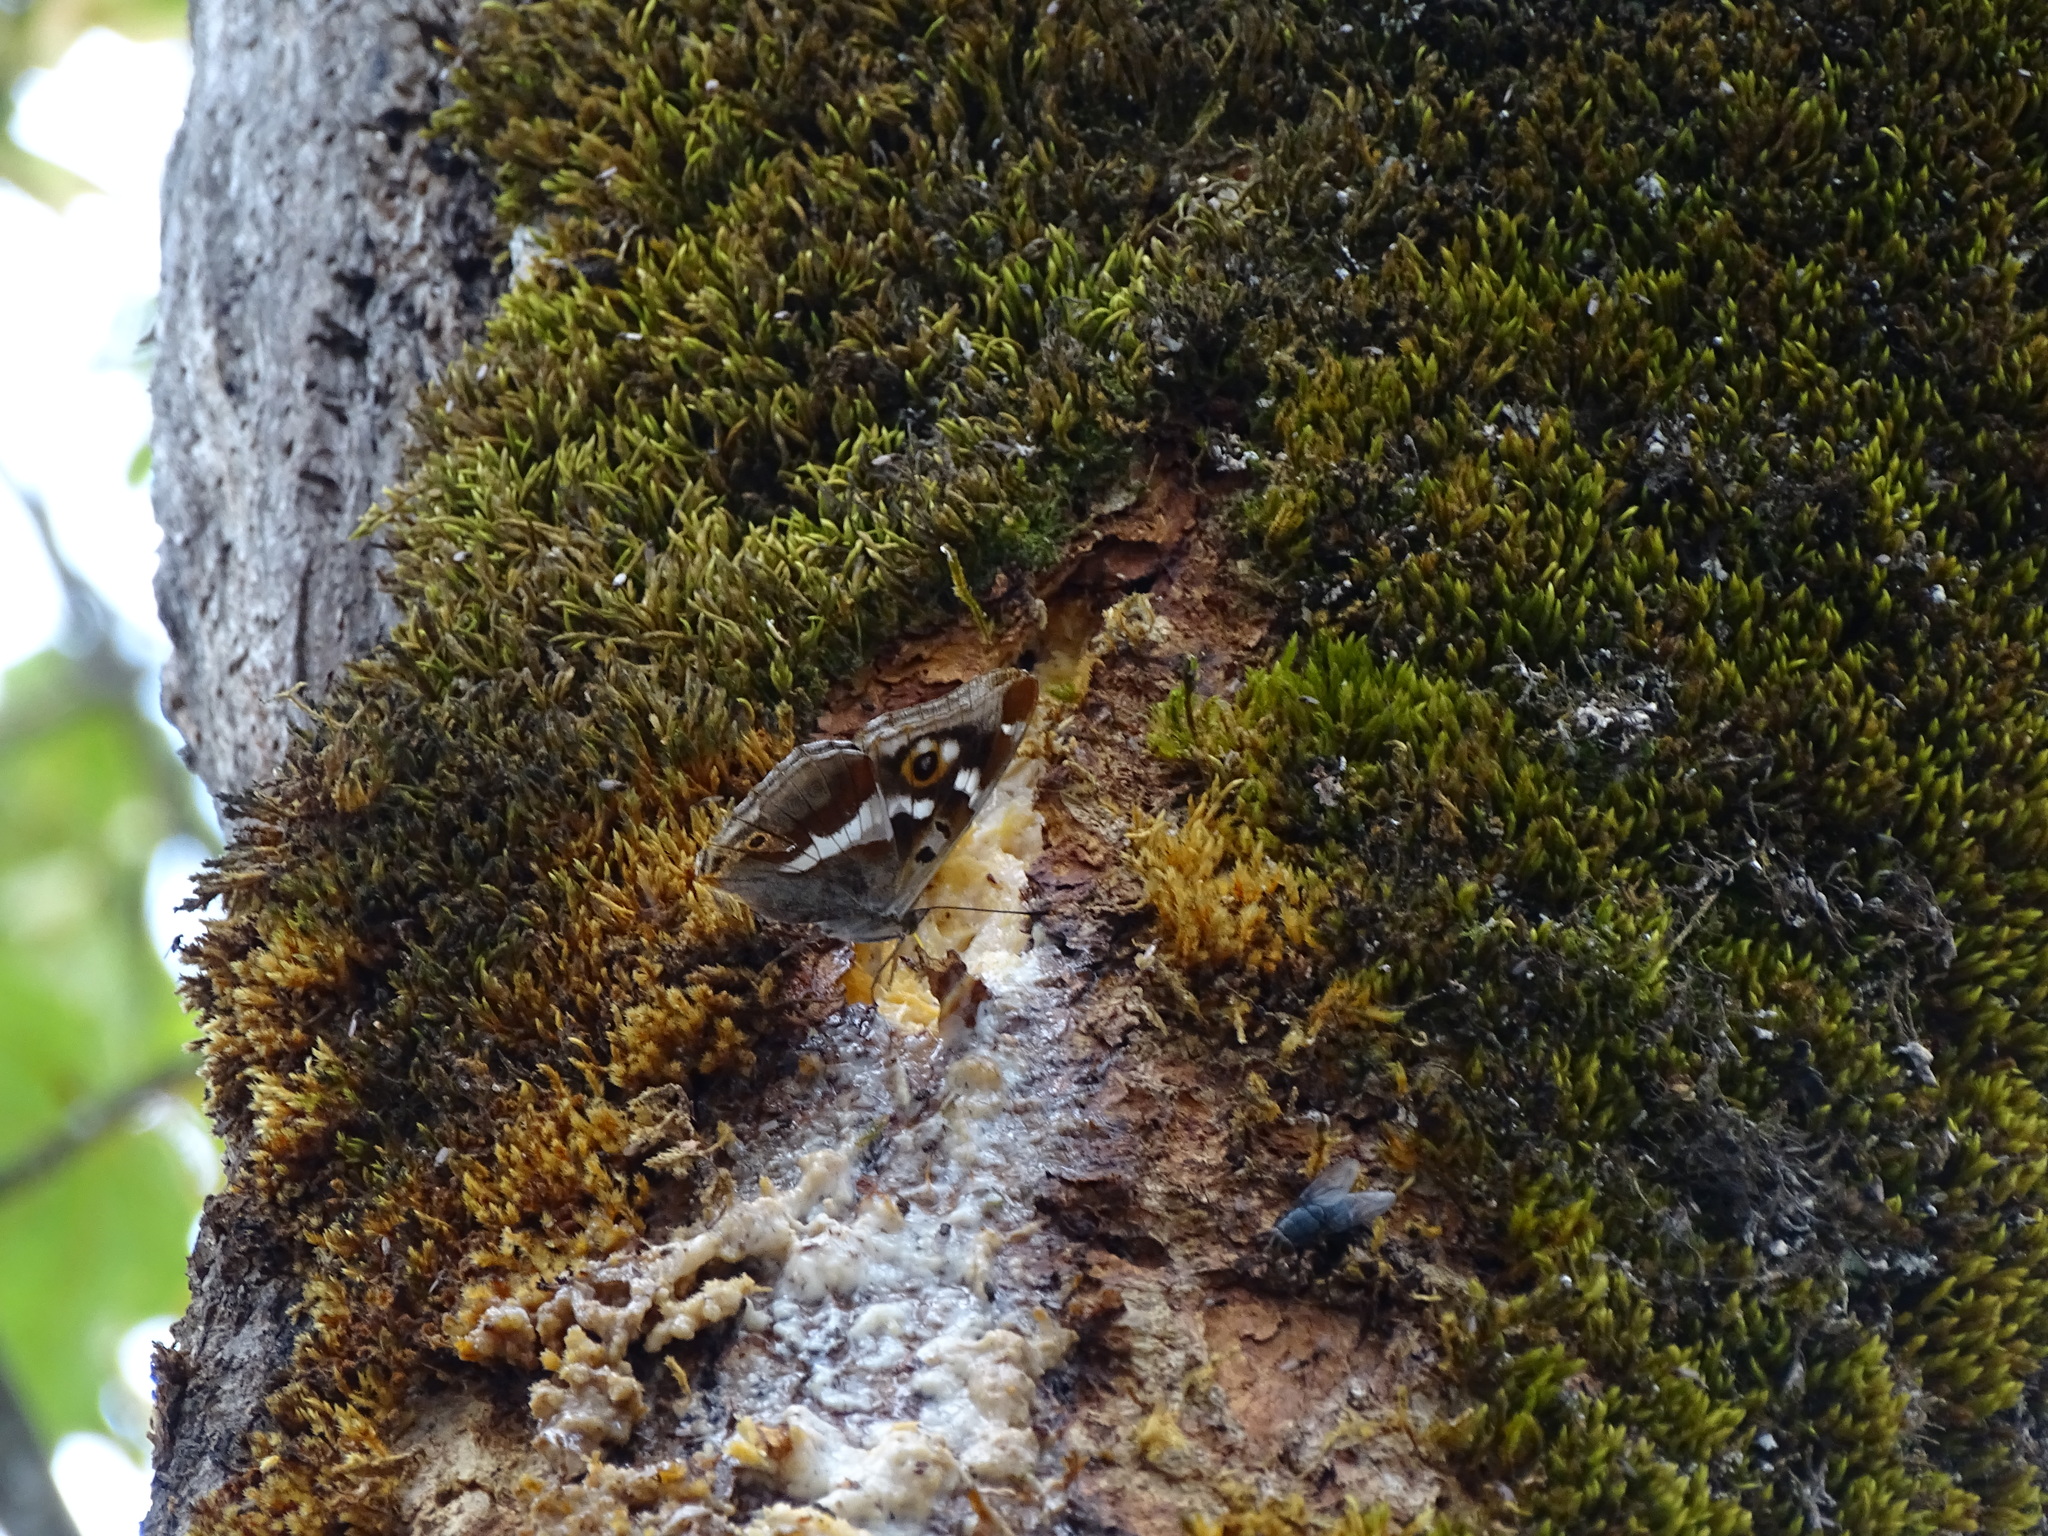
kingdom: Animalia
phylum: Arthropoda
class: Insecta
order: Lepidoptera
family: Nymphalidae
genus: Apatura
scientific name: Apatura iris
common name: Purple emperor
